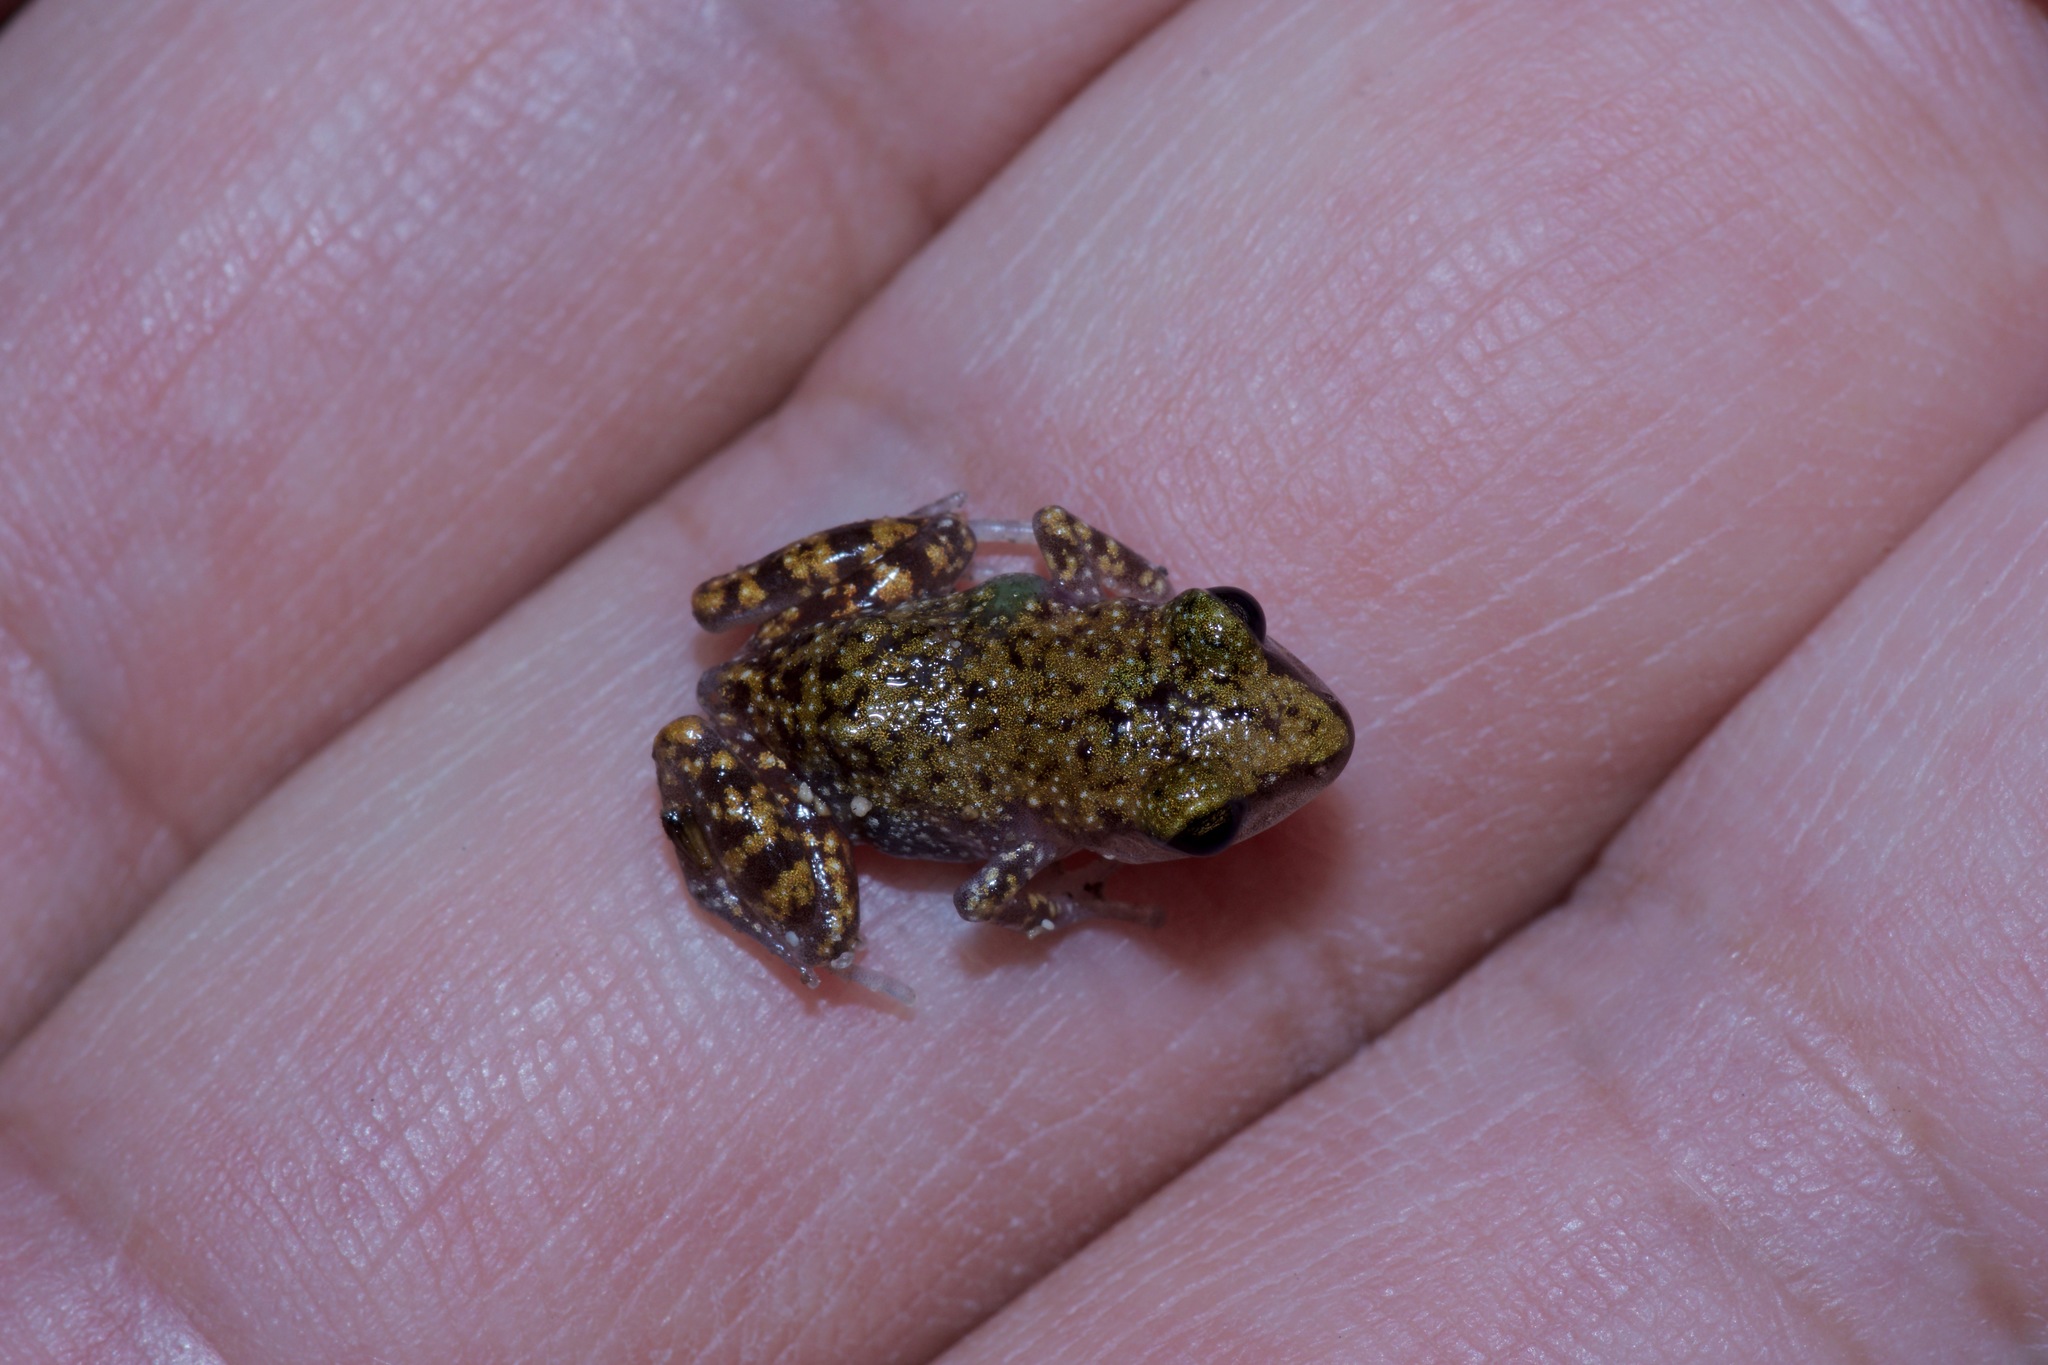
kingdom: Animalia
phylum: Chordata
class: Amphibia
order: Anura
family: Eleutherodactylidae
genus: Eleutherodactylus
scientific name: Eleutherodactylus marnockii
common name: Cliff chirping frog
